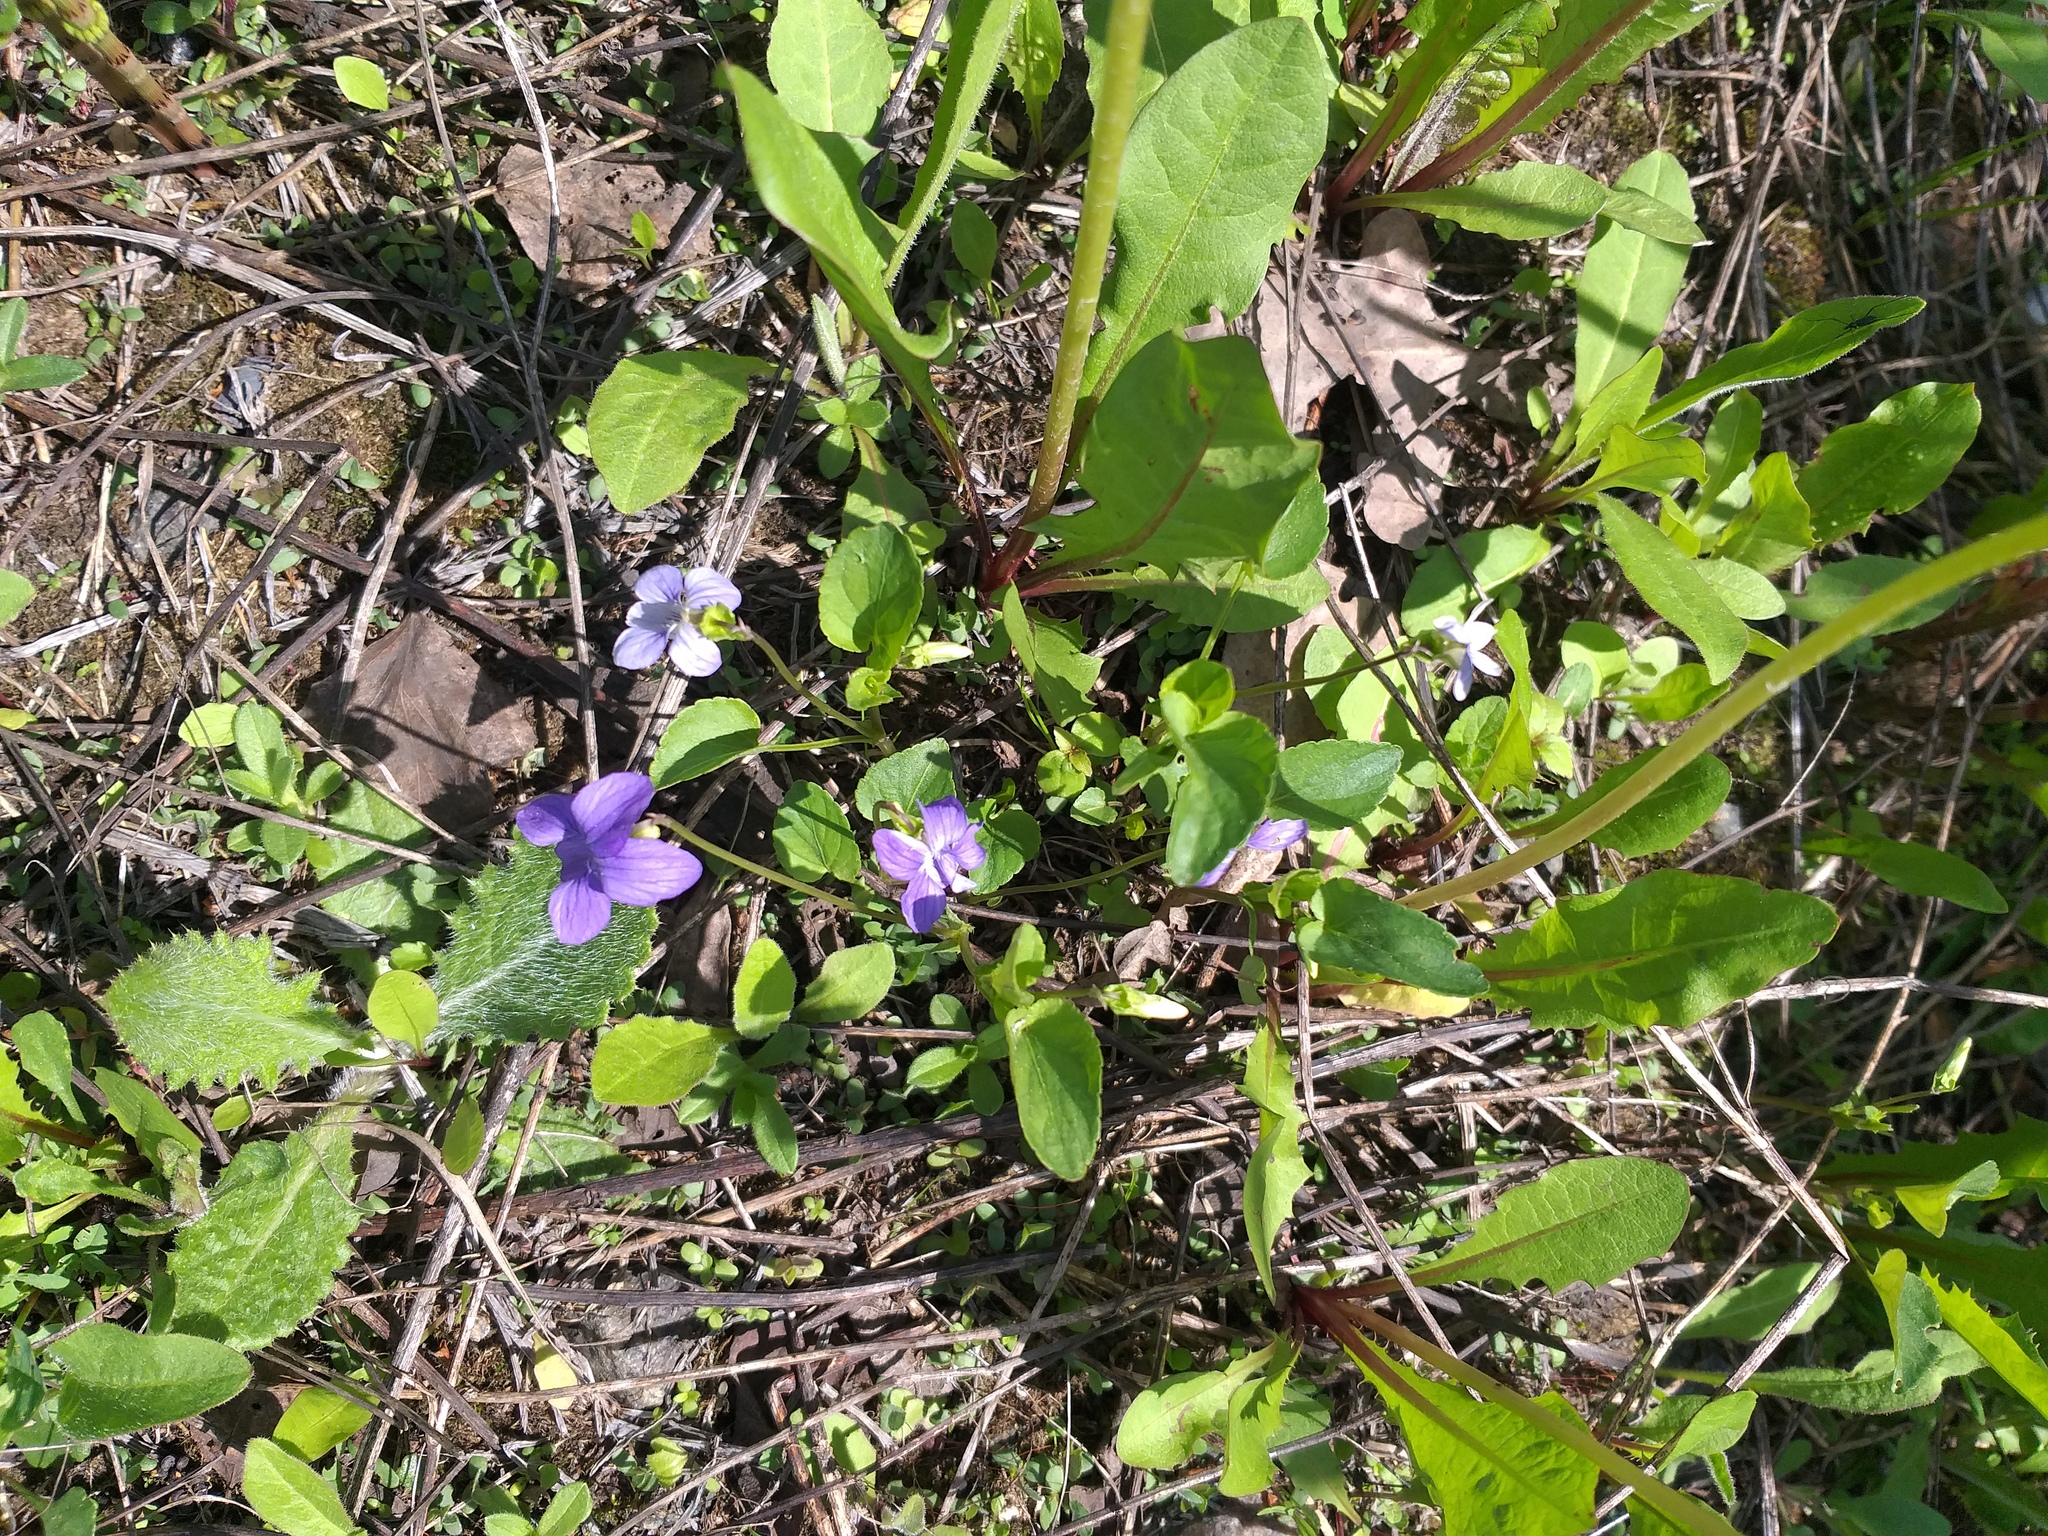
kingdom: Plantae
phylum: Tracheophyta
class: Magnoliopsida
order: Malpighiales
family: Violaceae
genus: Viola
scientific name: Viola canina
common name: Heath dog-violet
